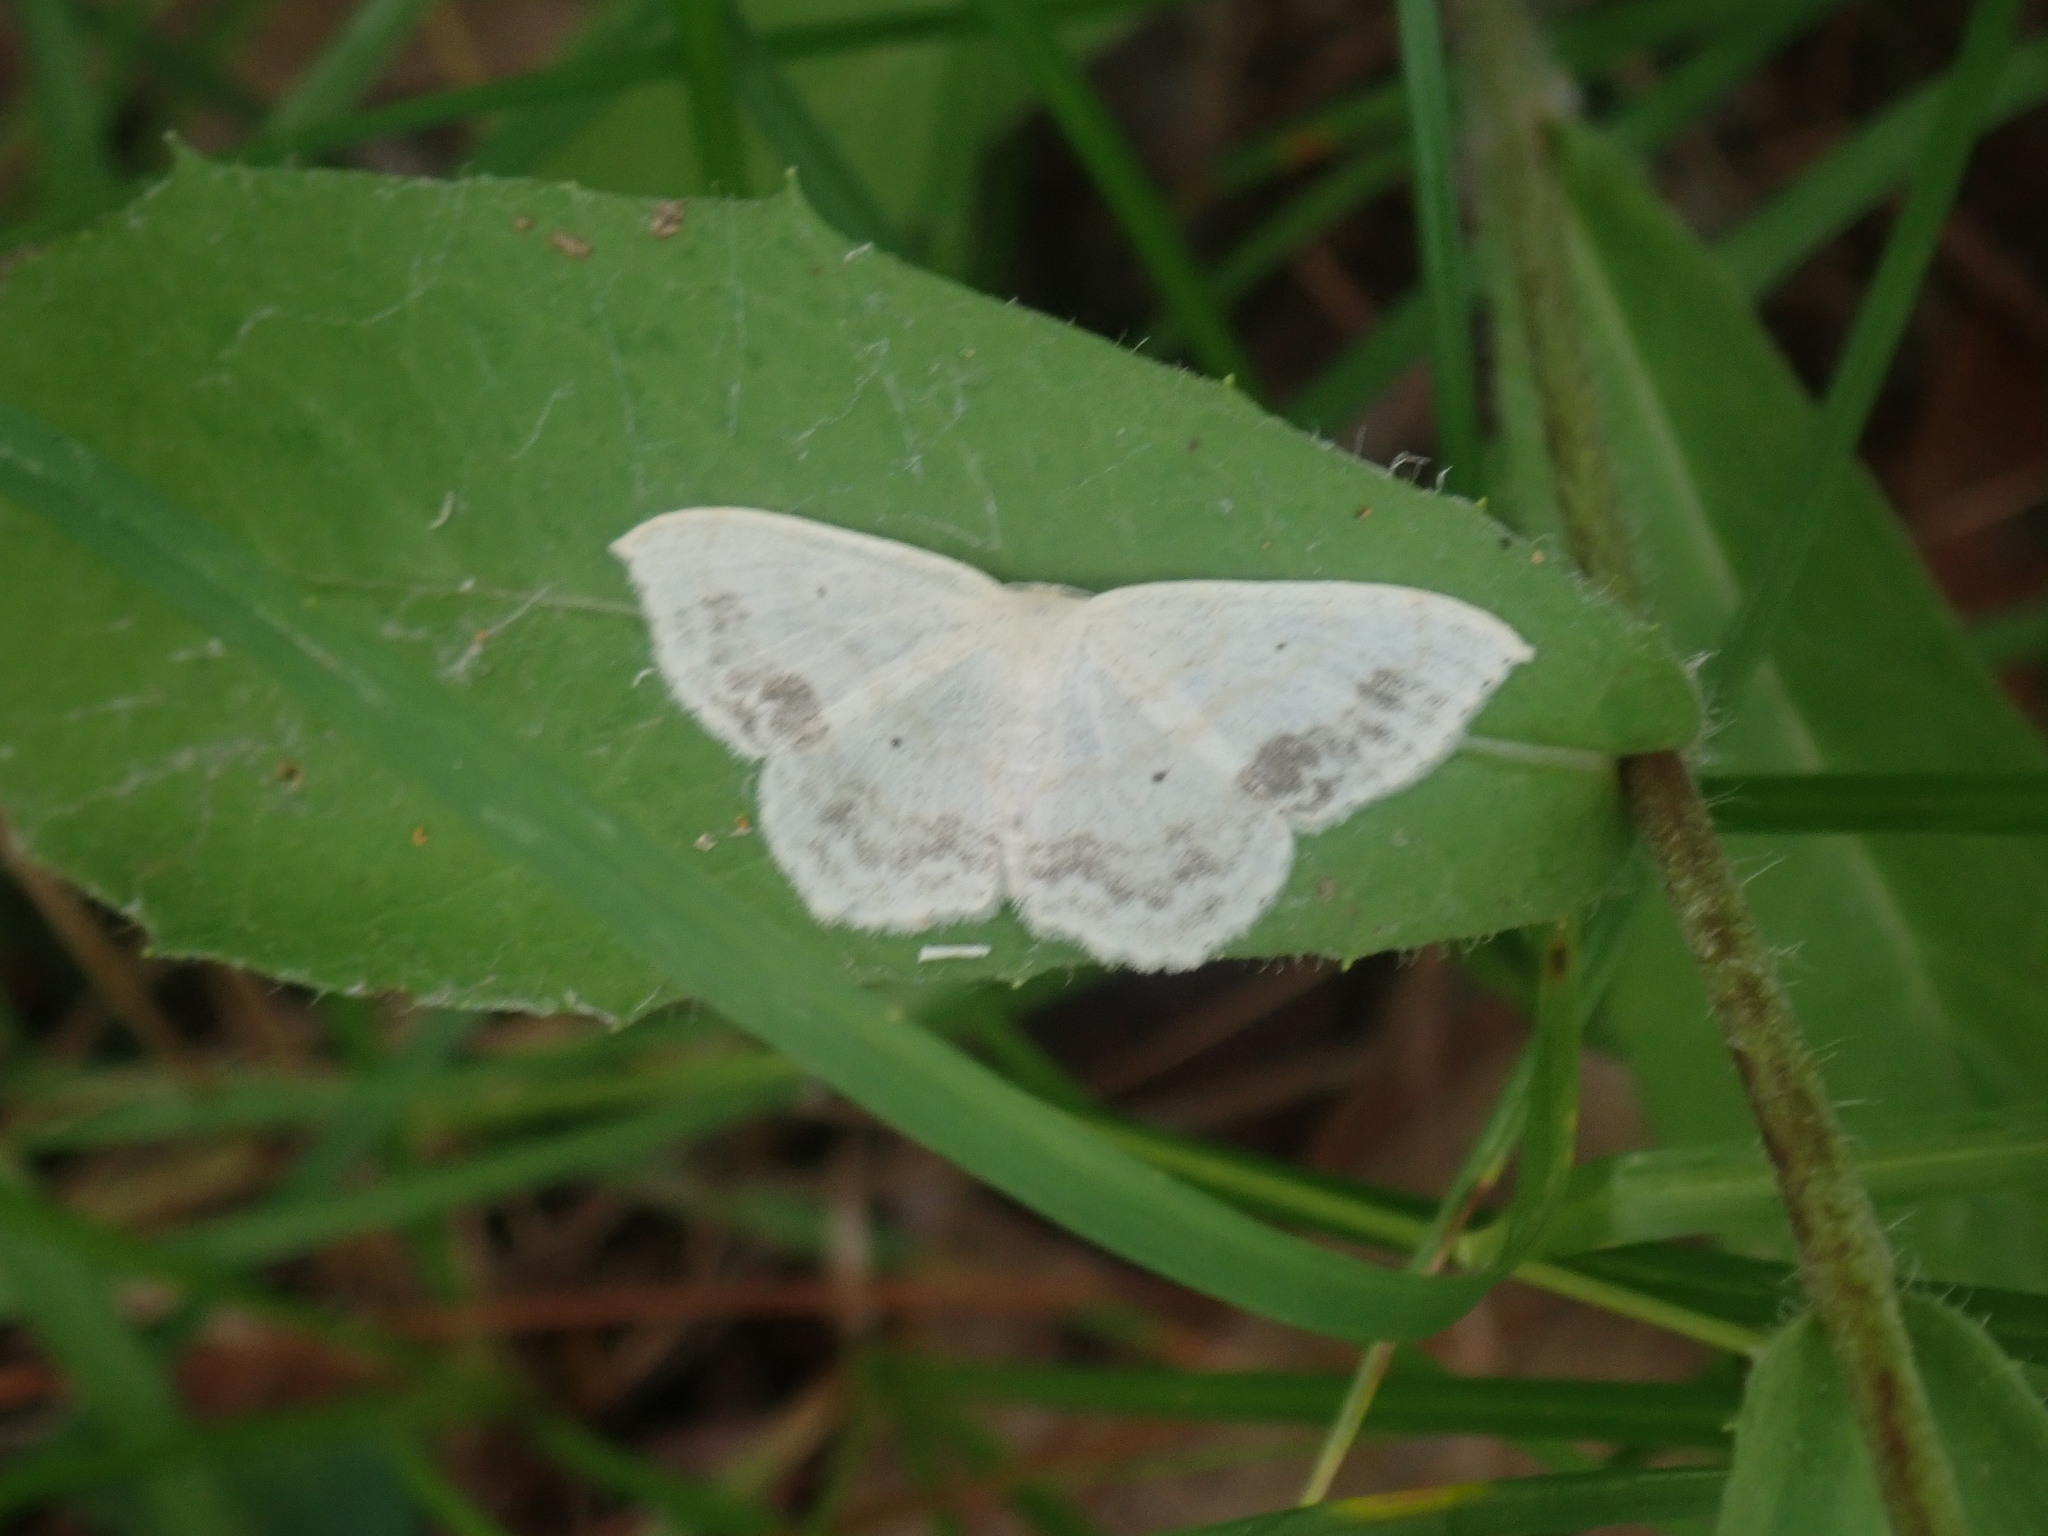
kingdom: Animalia
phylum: Arthropoda
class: Insecta
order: Lepidoptera
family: Geometridae
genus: Scopula
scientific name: Scopula limboundata
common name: Large lace border
